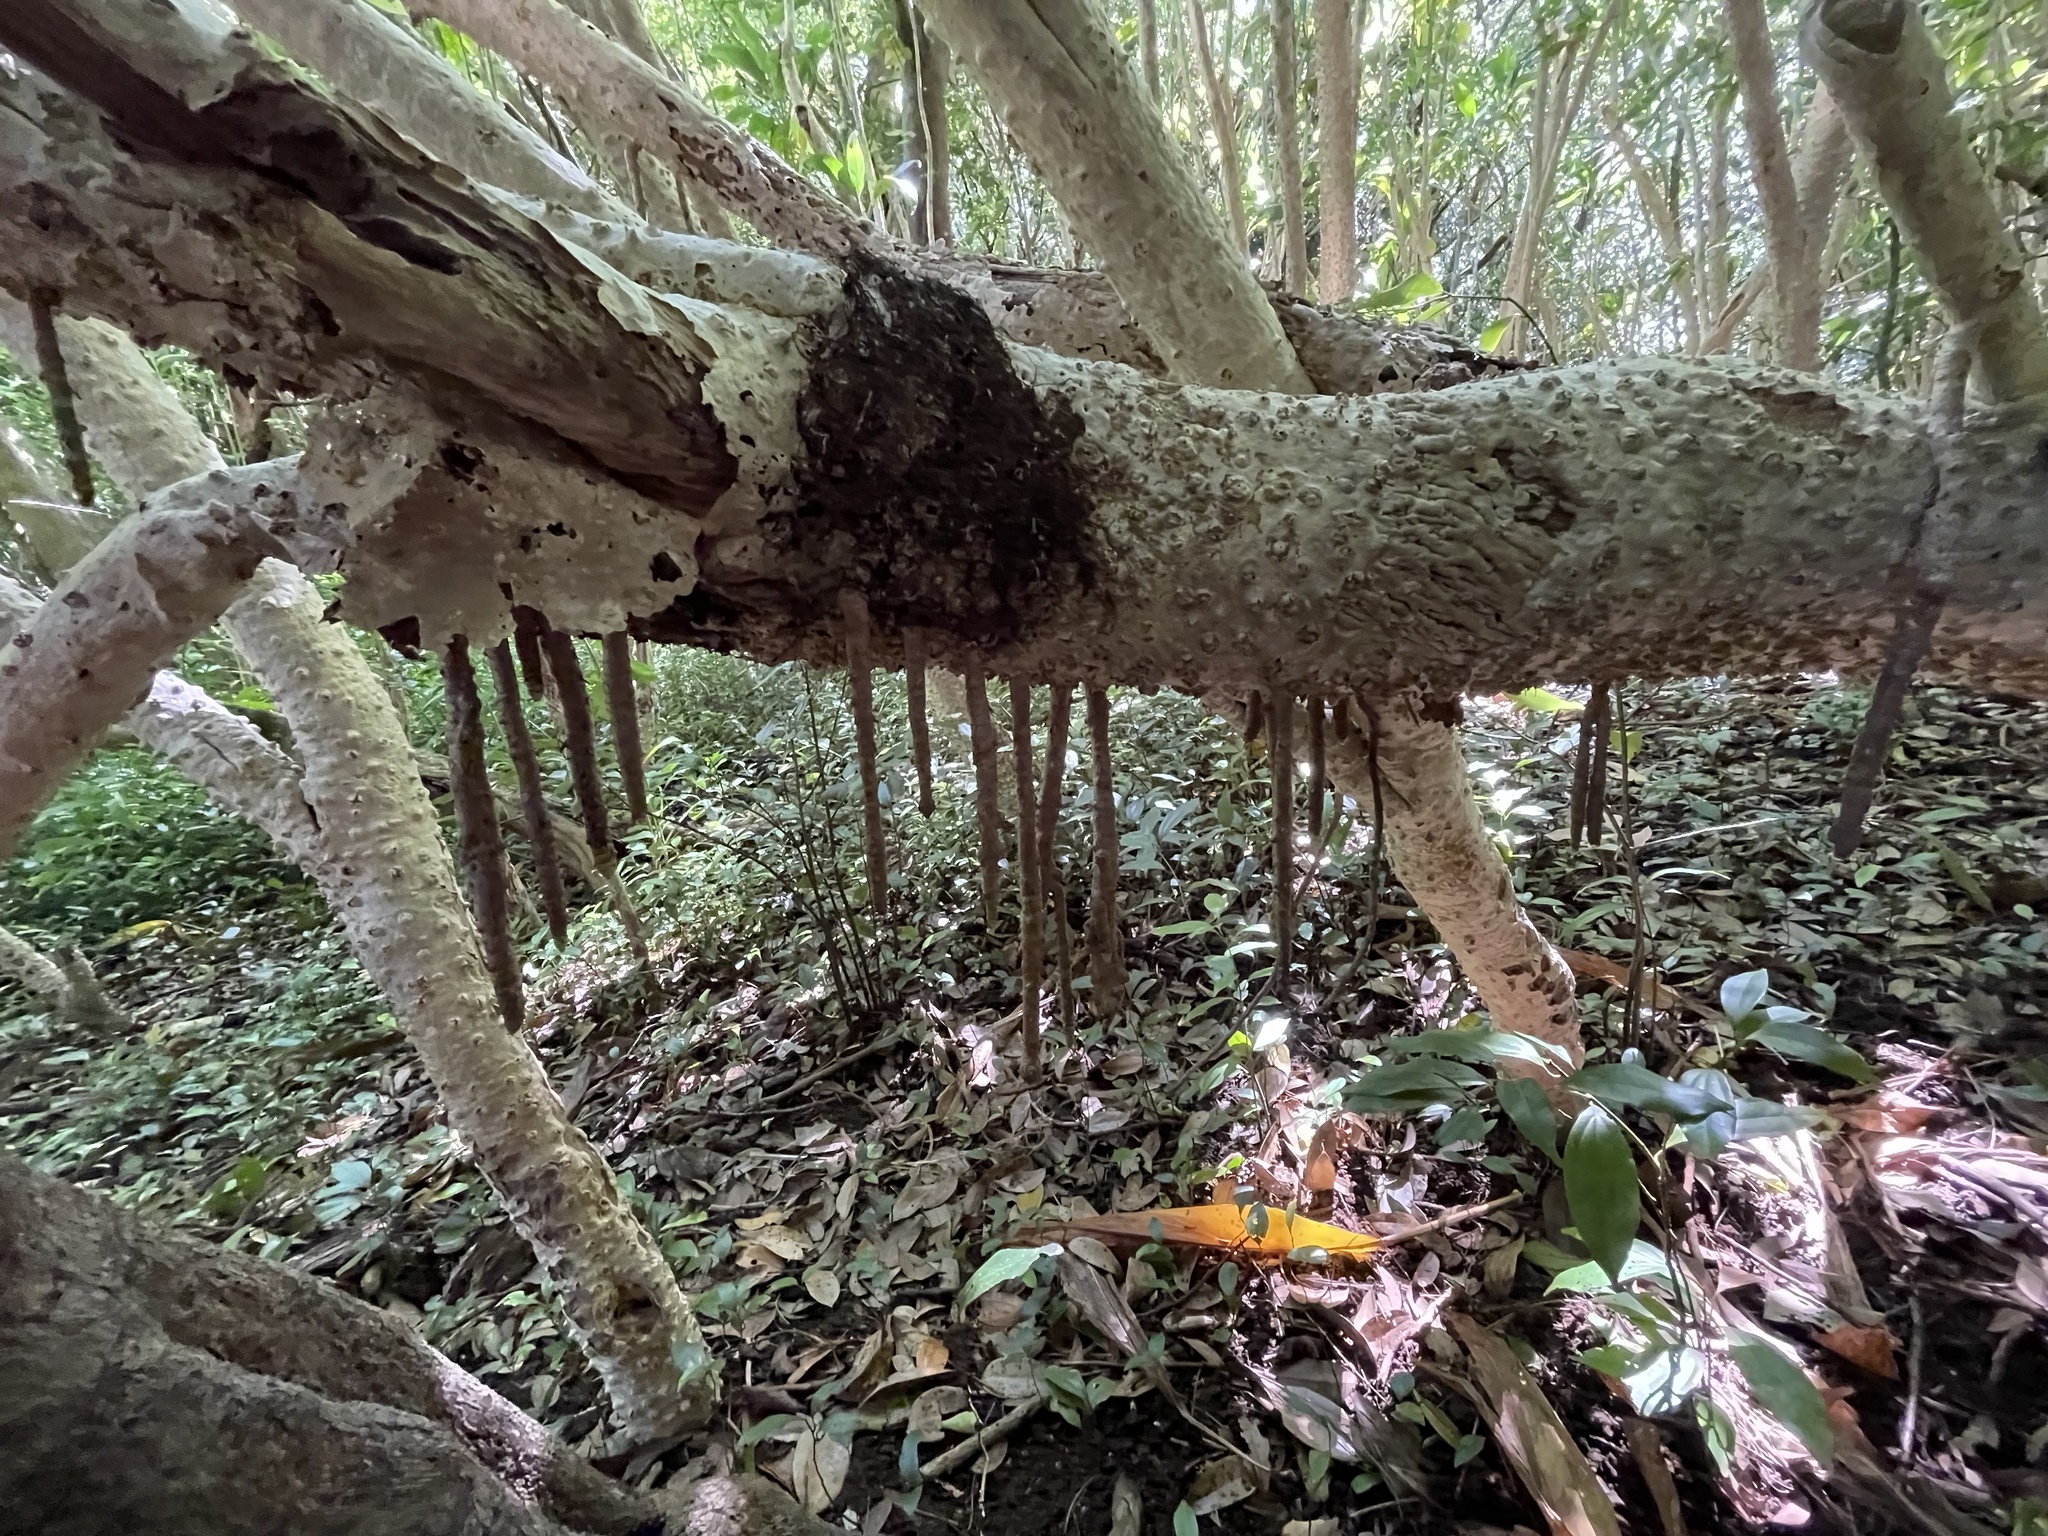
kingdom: Plantae
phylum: Tracheophyta
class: Liliopsida
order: Asparagales
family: Asparagaceae
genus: Cordyline
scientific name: Cordyline fruticosa
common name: Good-luck-plant
